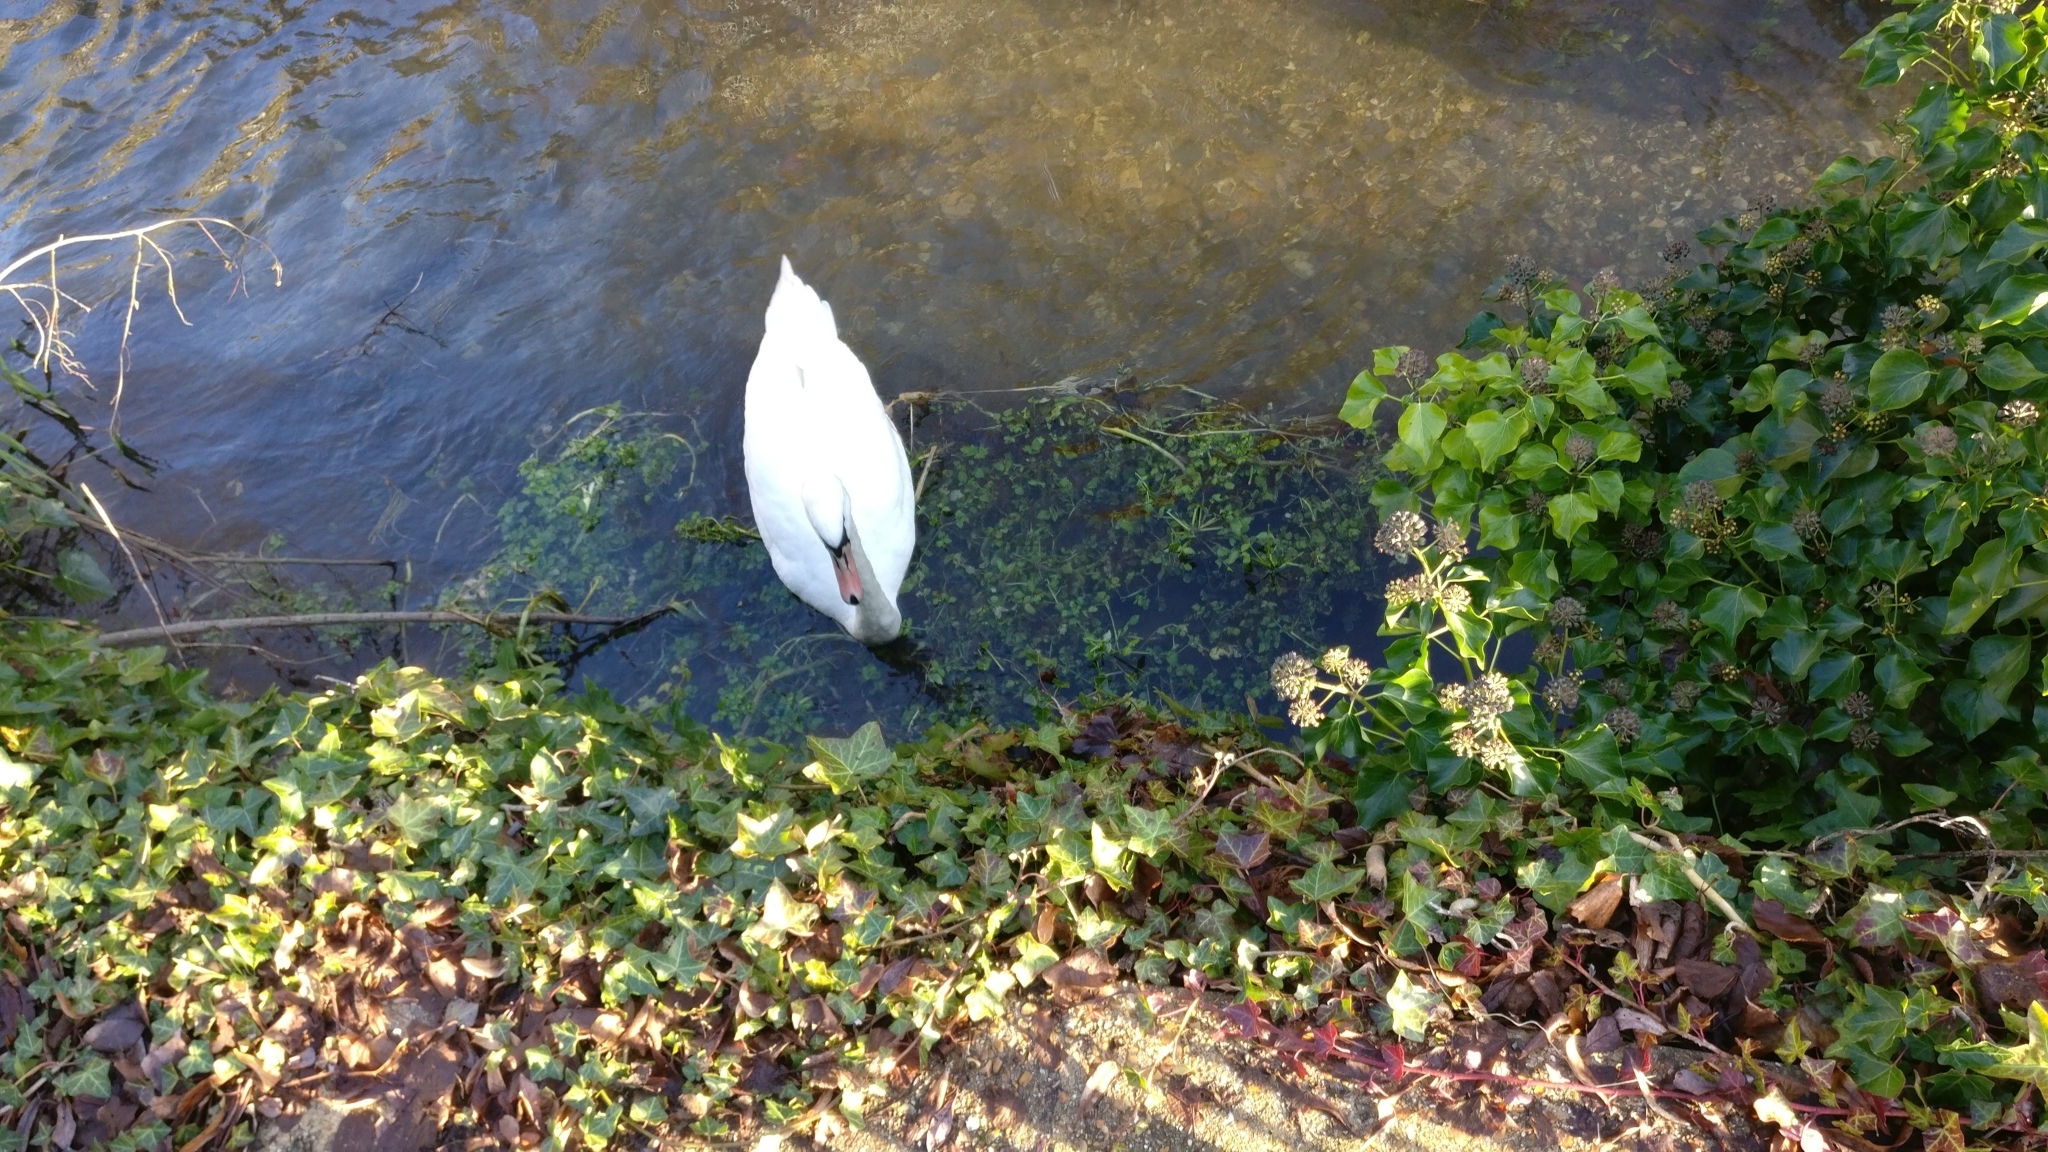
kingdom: Animalia
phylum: Chordata
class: Aves
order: Anseriformes
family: Anatidae
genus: Cygnus
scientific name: Cygnus olor
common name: Mute swan
